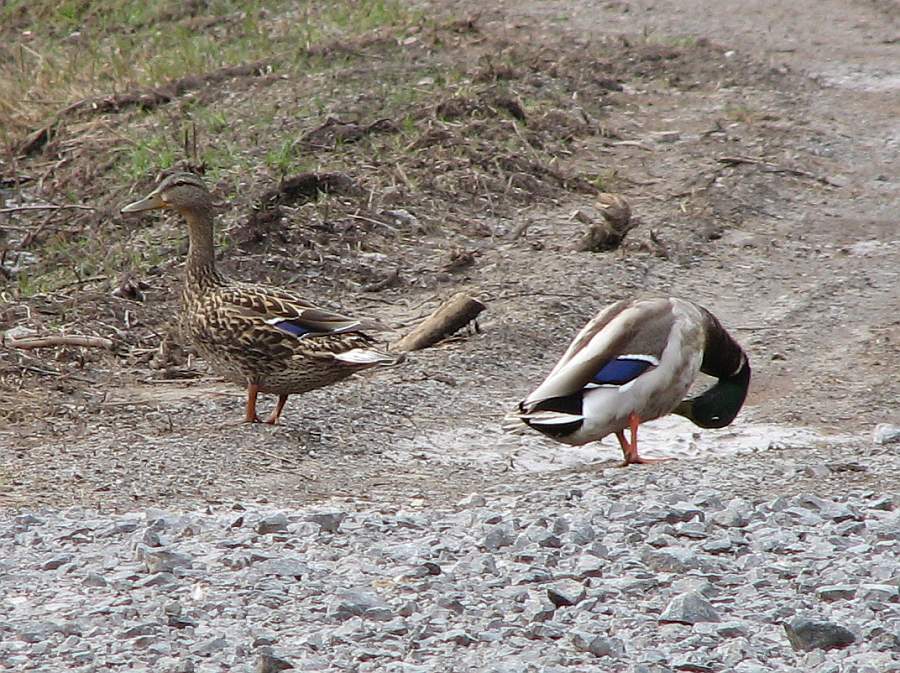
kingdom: Animalia
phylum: Chordata
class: Aves
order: Anseriformes
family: Anatidae
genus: Anas
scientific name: Anas platyrhynchos
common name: Mallard
